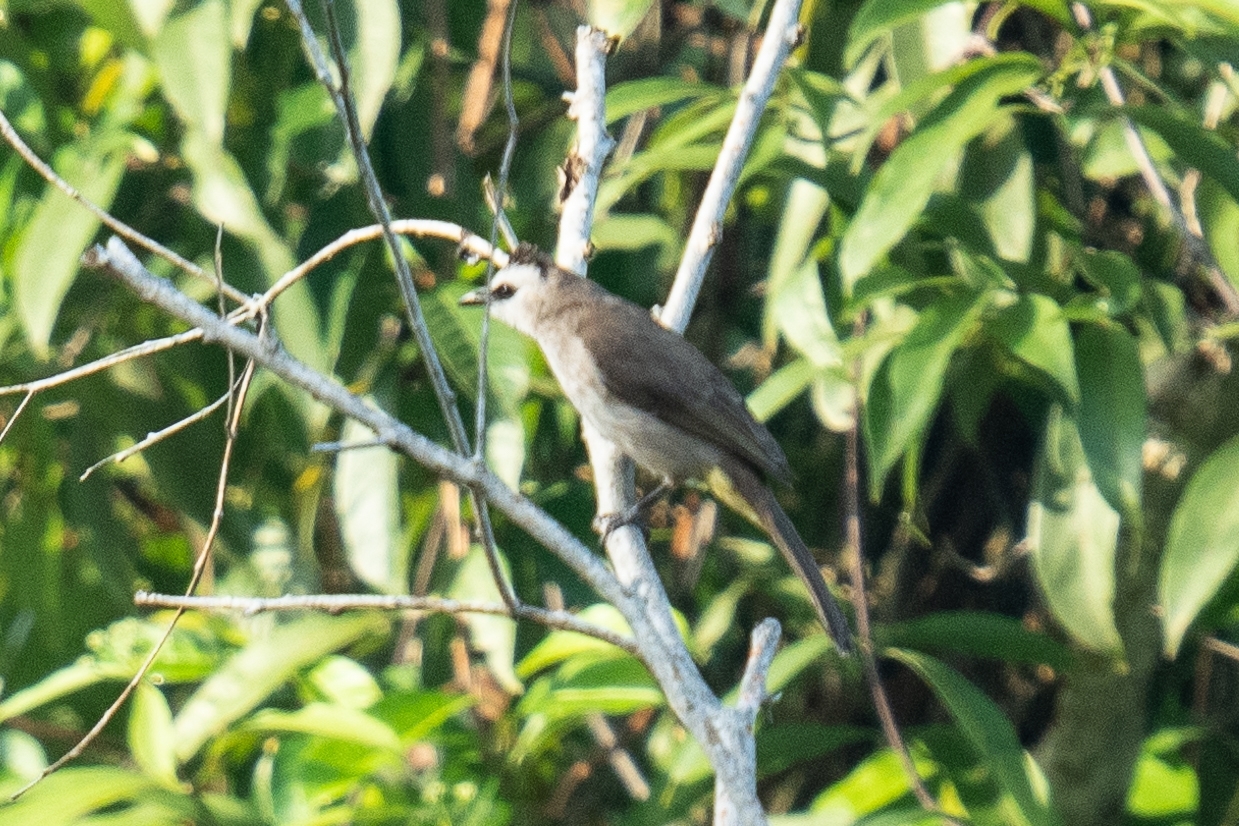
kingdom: Animalia
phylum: Chordata
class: Aves
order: Passeriformes
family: Pycnonotidae
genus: Pycnonotus
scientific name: Pycnonotus goiavier
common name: Yellow-vented bulbul
